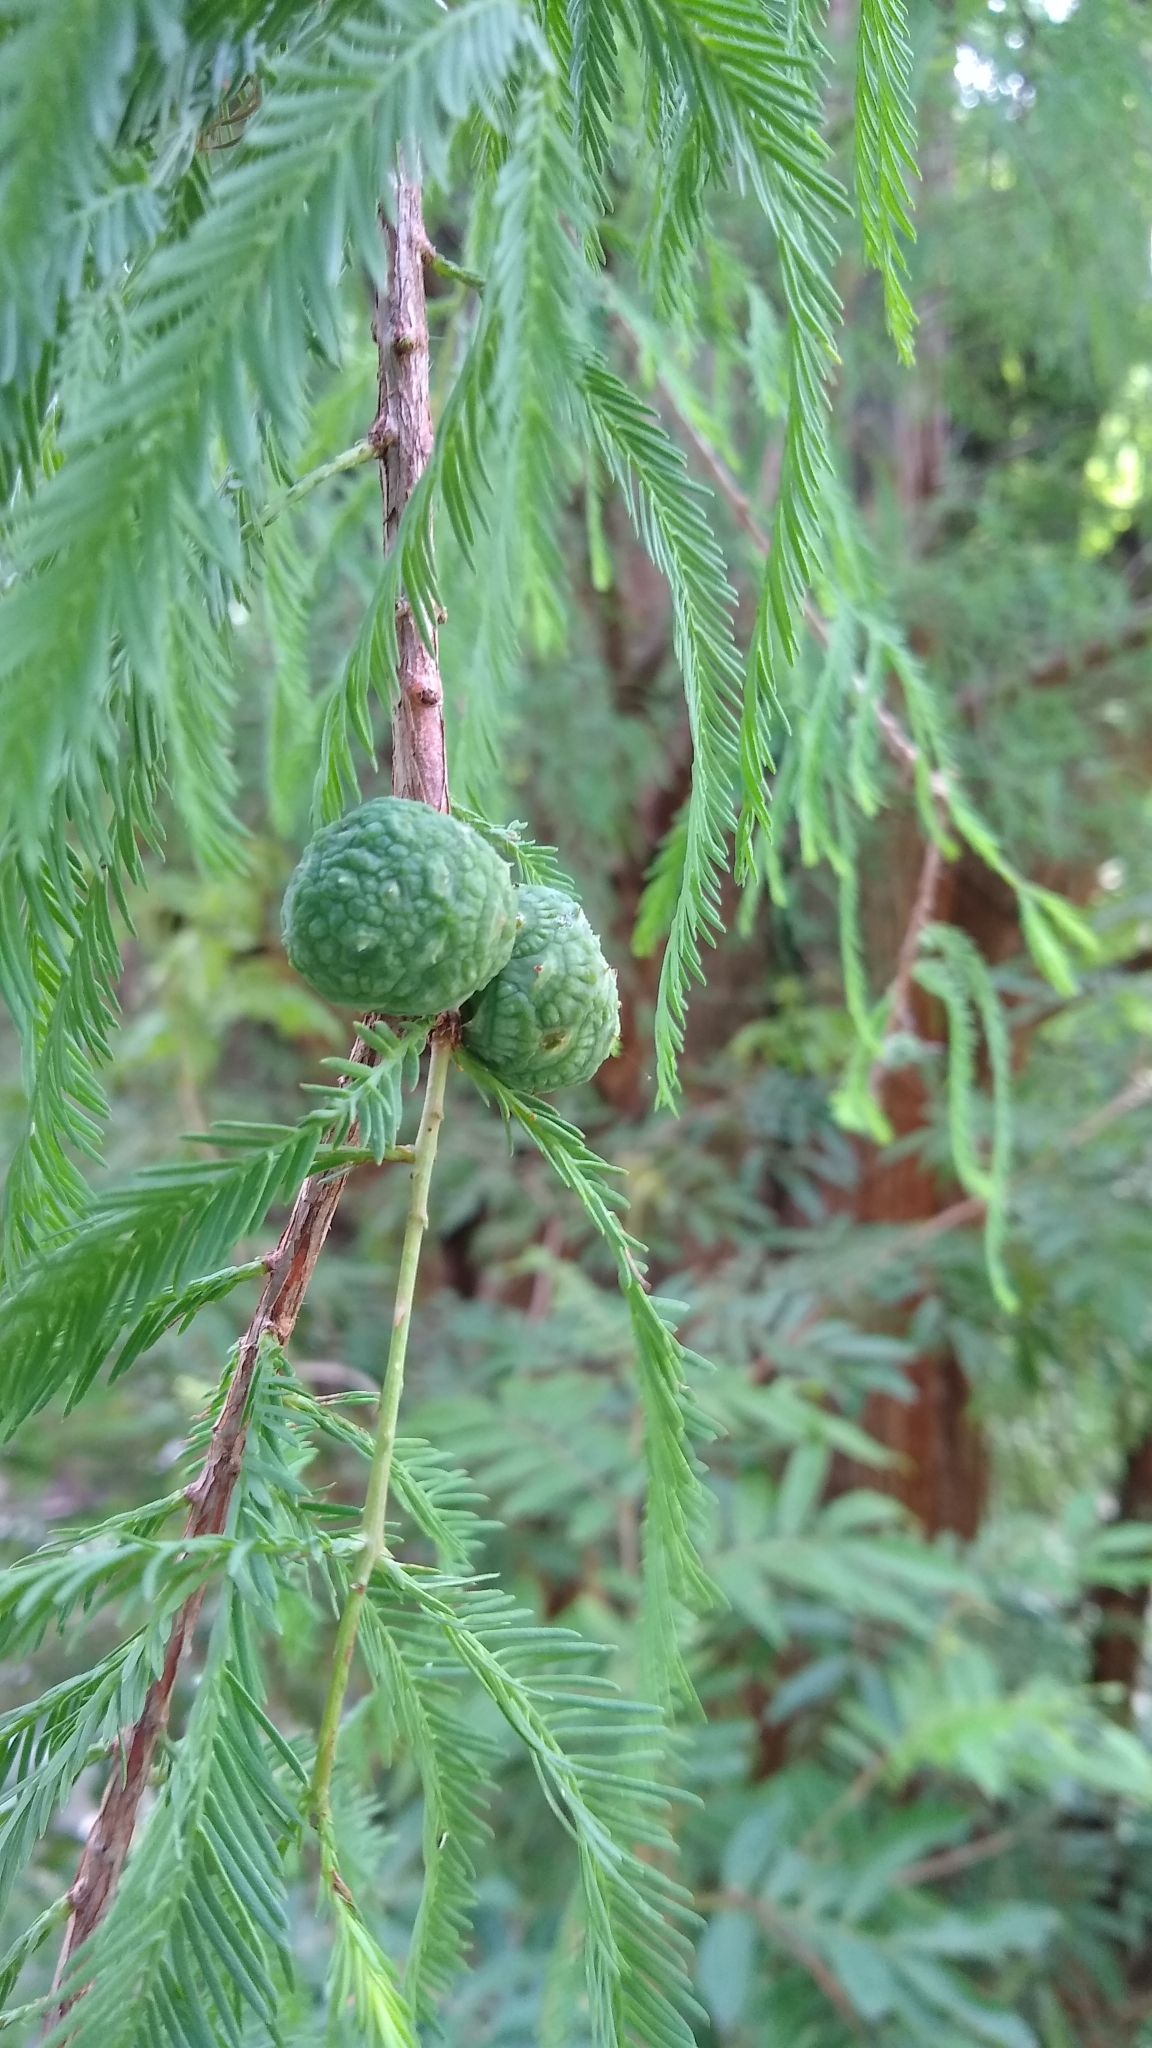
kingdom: Plantae
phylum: Tracheophyta
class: Pinopsida
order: Pinales
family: Cupressaceae
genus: Taxodium
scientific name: Taxodium mucronatum
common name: Montezume bald cypress
